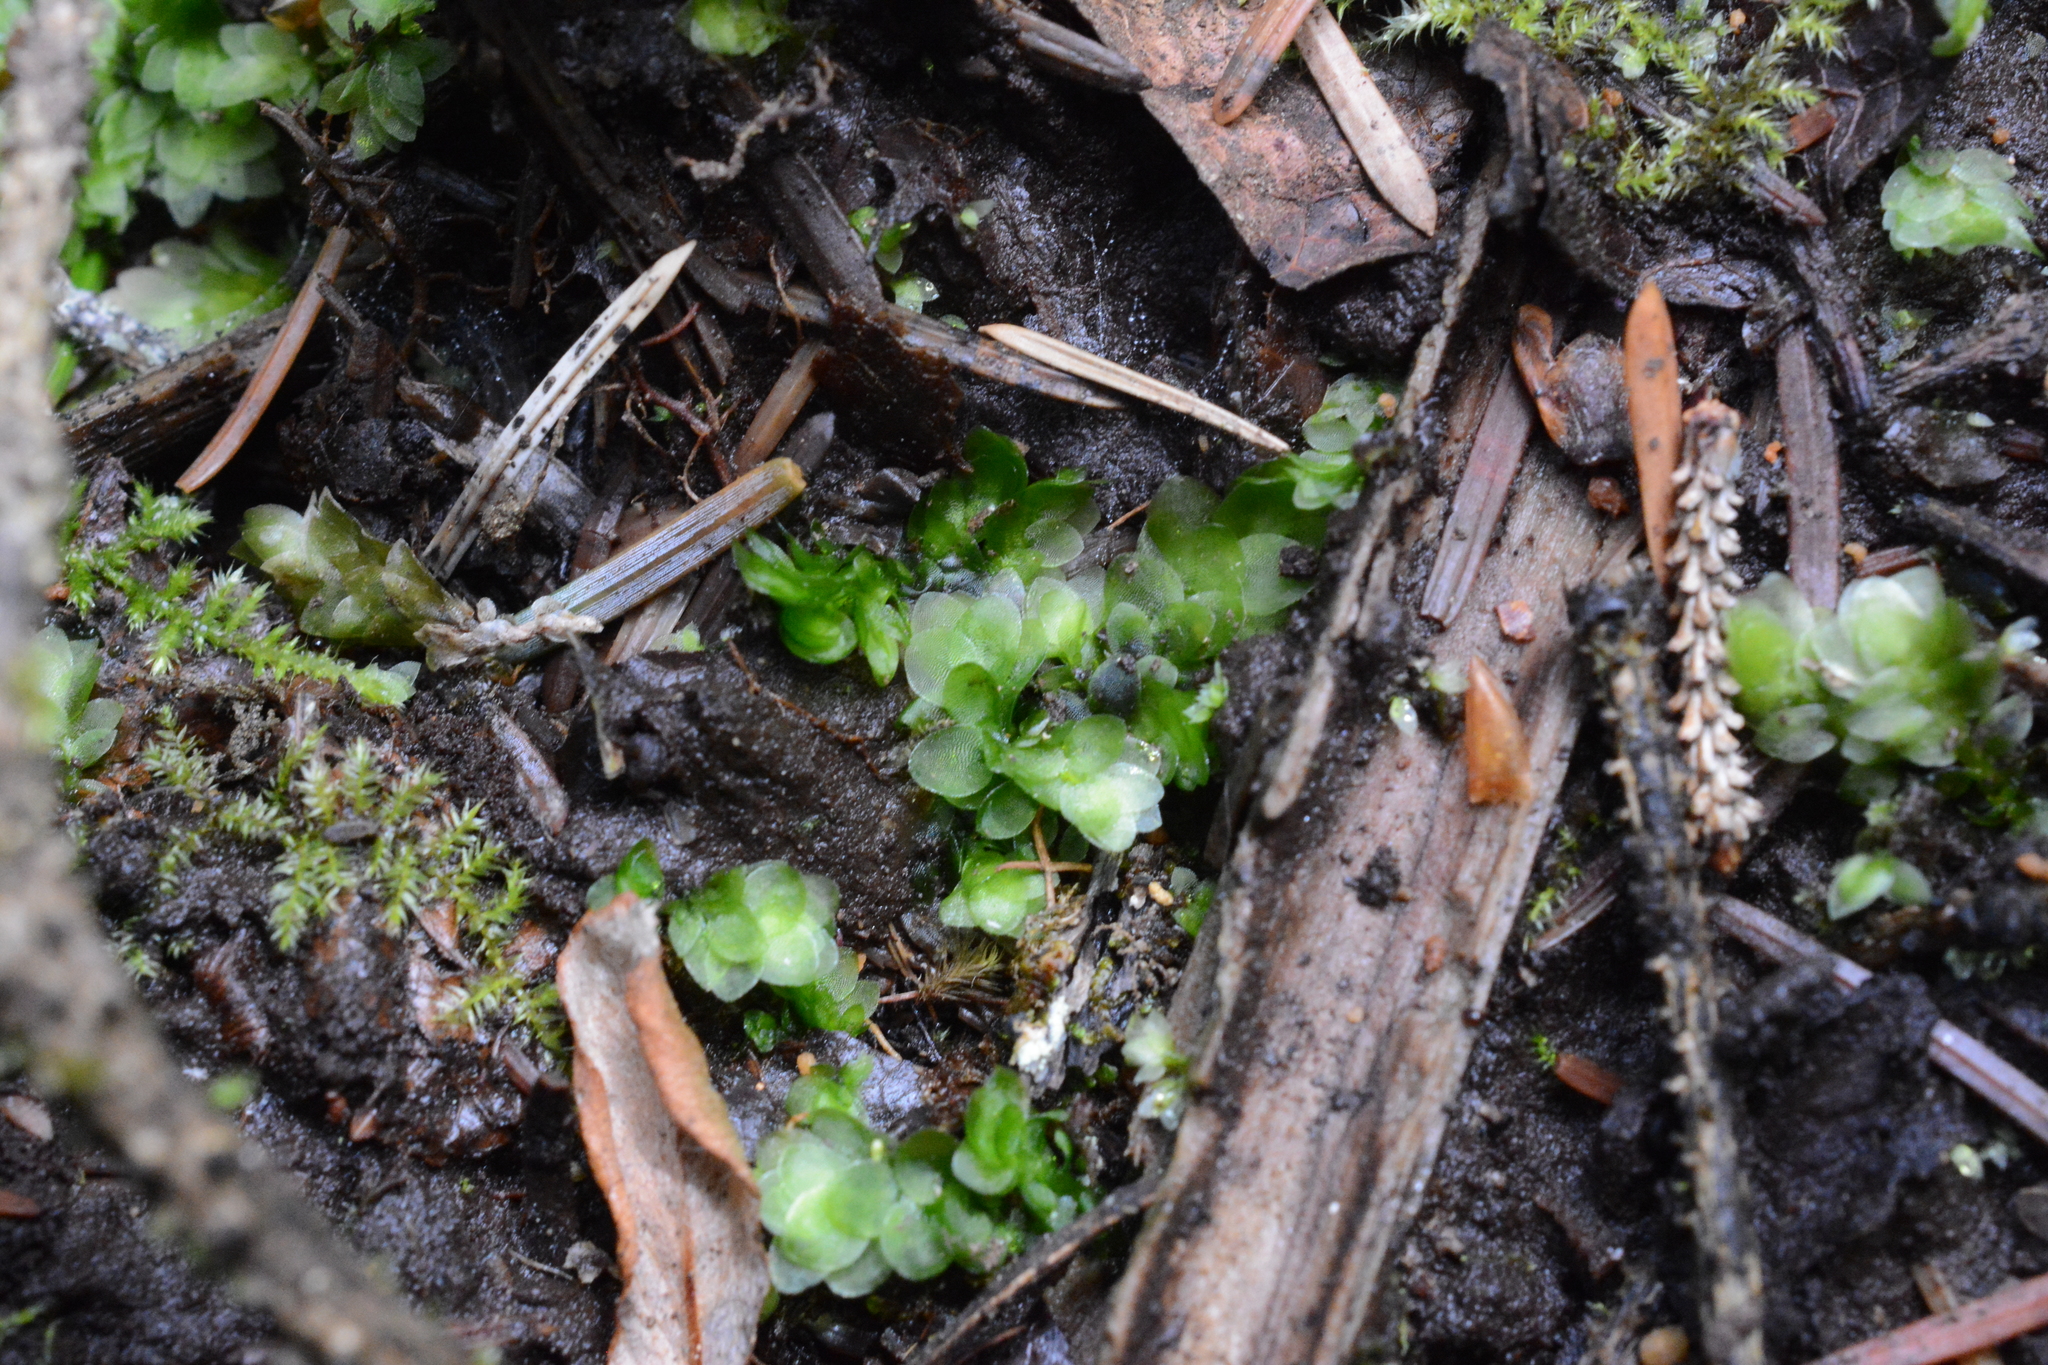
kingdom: Plantae
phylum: Bryophyta
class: Bryopsida
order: Hookeriales
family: Hookeriaceae
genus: Hookeria
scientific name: Hookeria lucens
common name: Shining hookeria
